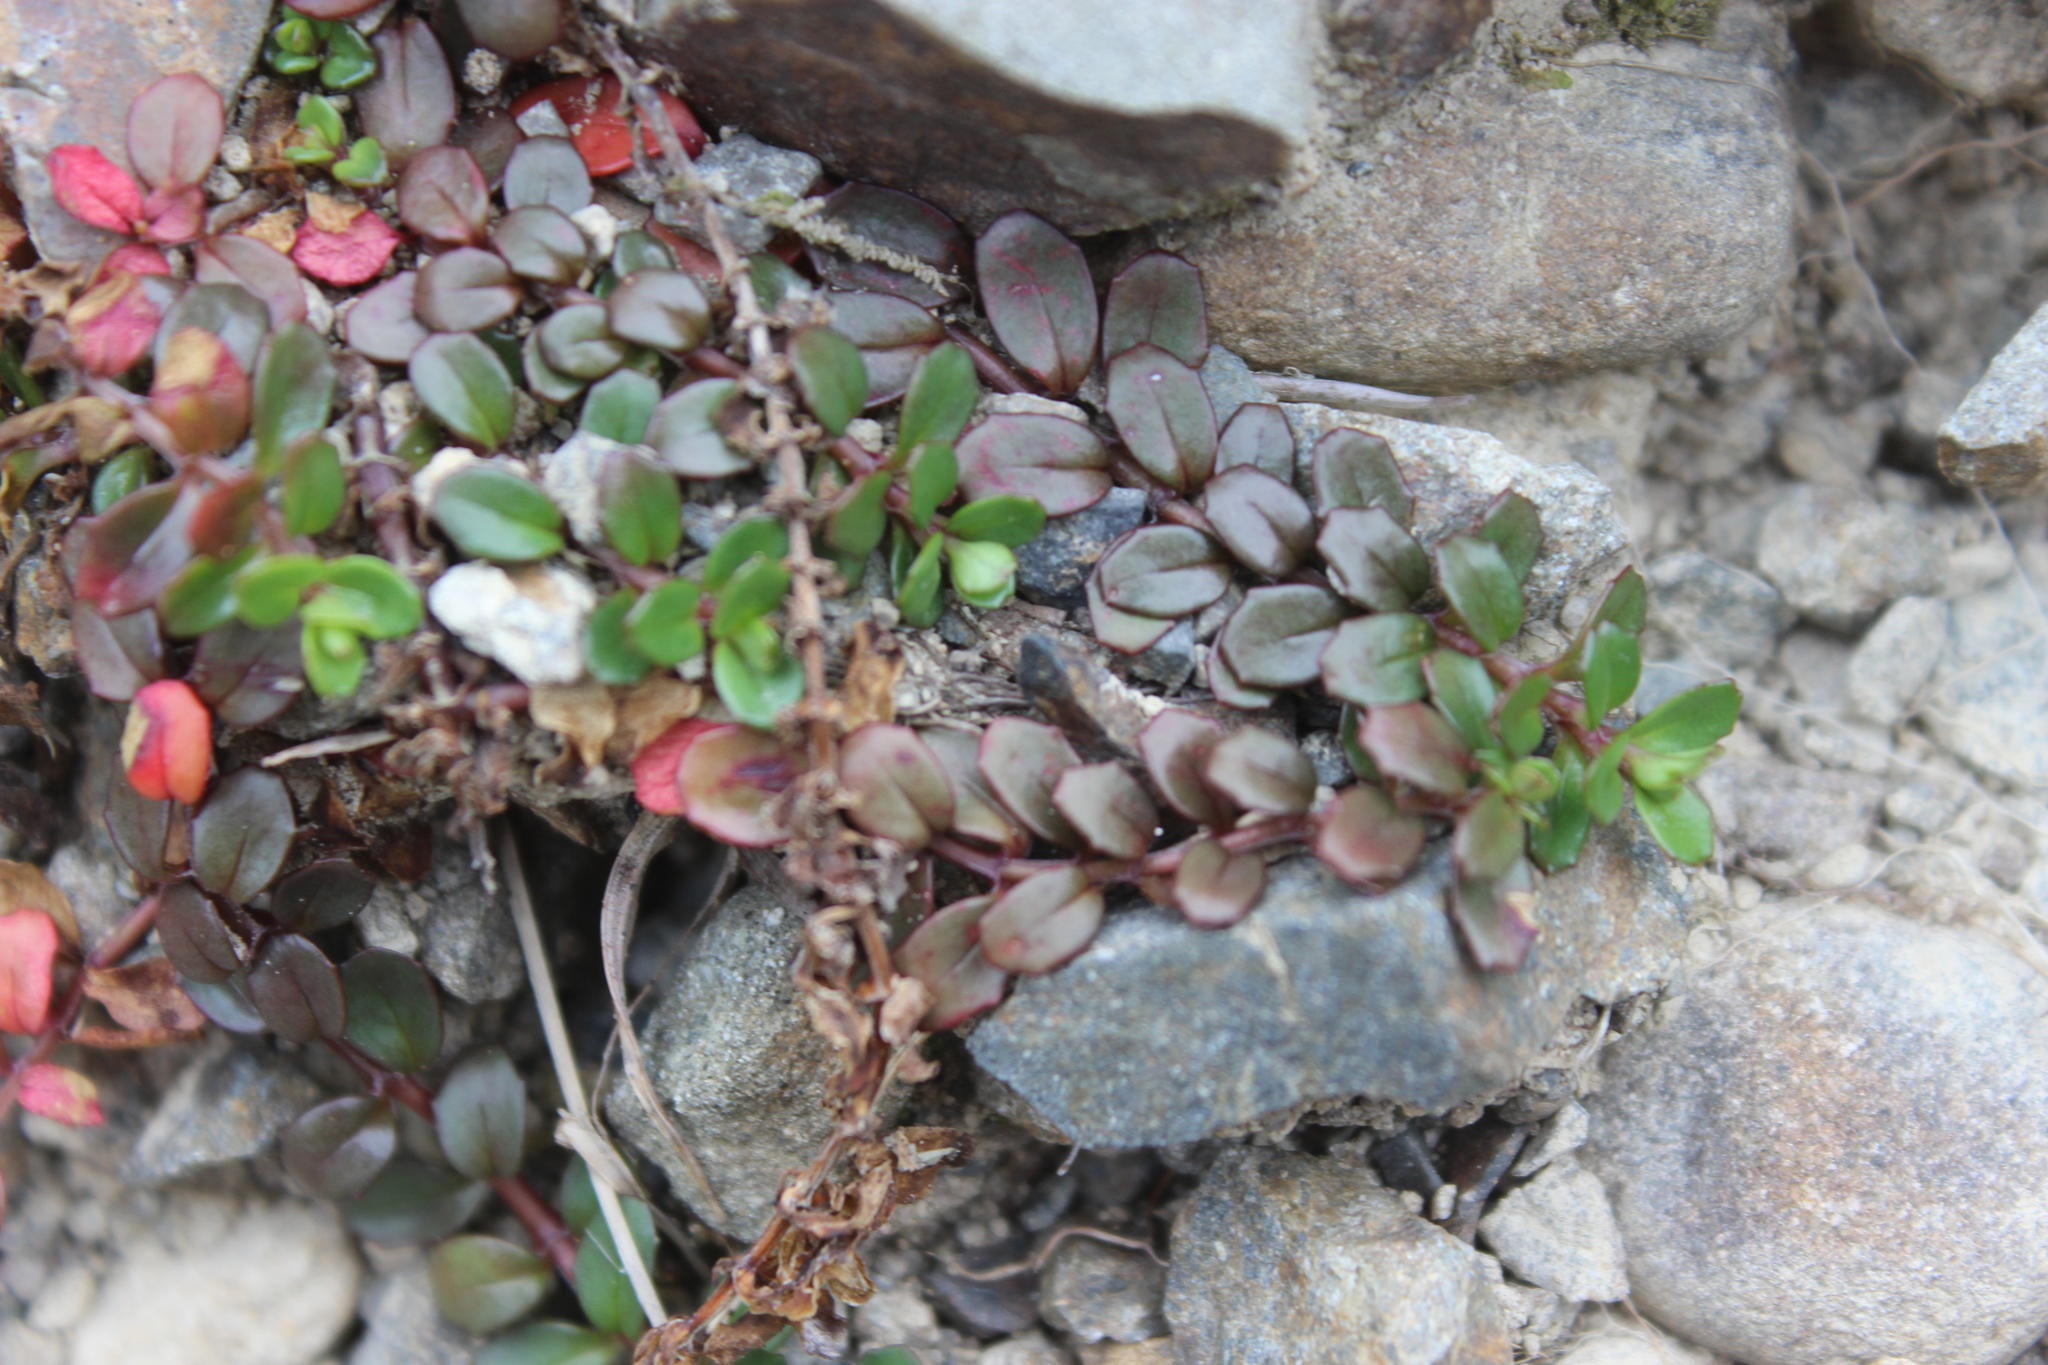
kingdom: Plantae
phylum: Tracheophyta
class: Magnoliopsida
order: Myrtales
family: Onagraceae
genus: Epilobium
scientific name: Epilobium alsinoides
